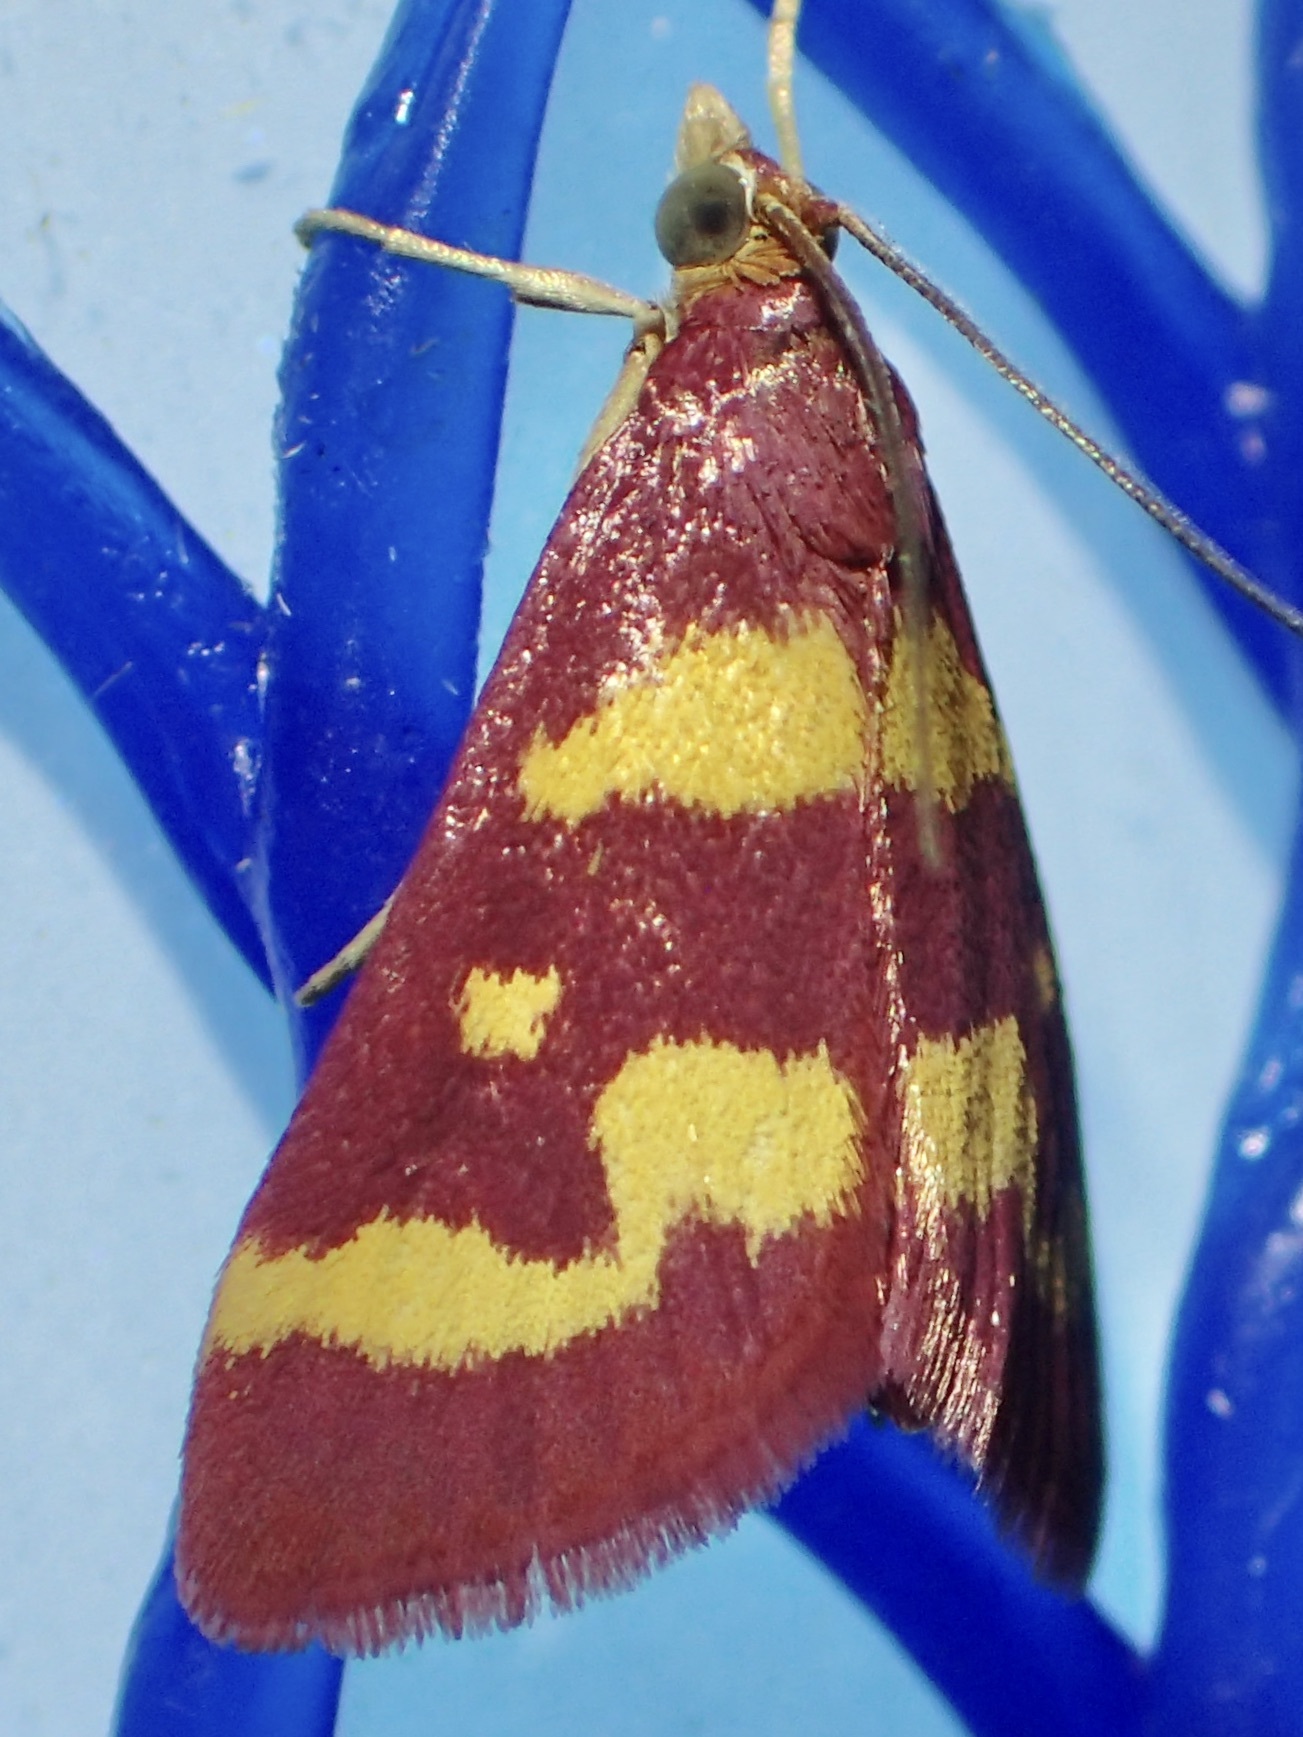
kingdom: Animalia
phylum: Arthropoda
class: Insecta
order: Lepidoptera
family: Crambidae
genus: Pyrausta
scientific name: Pyrausta tyralis
